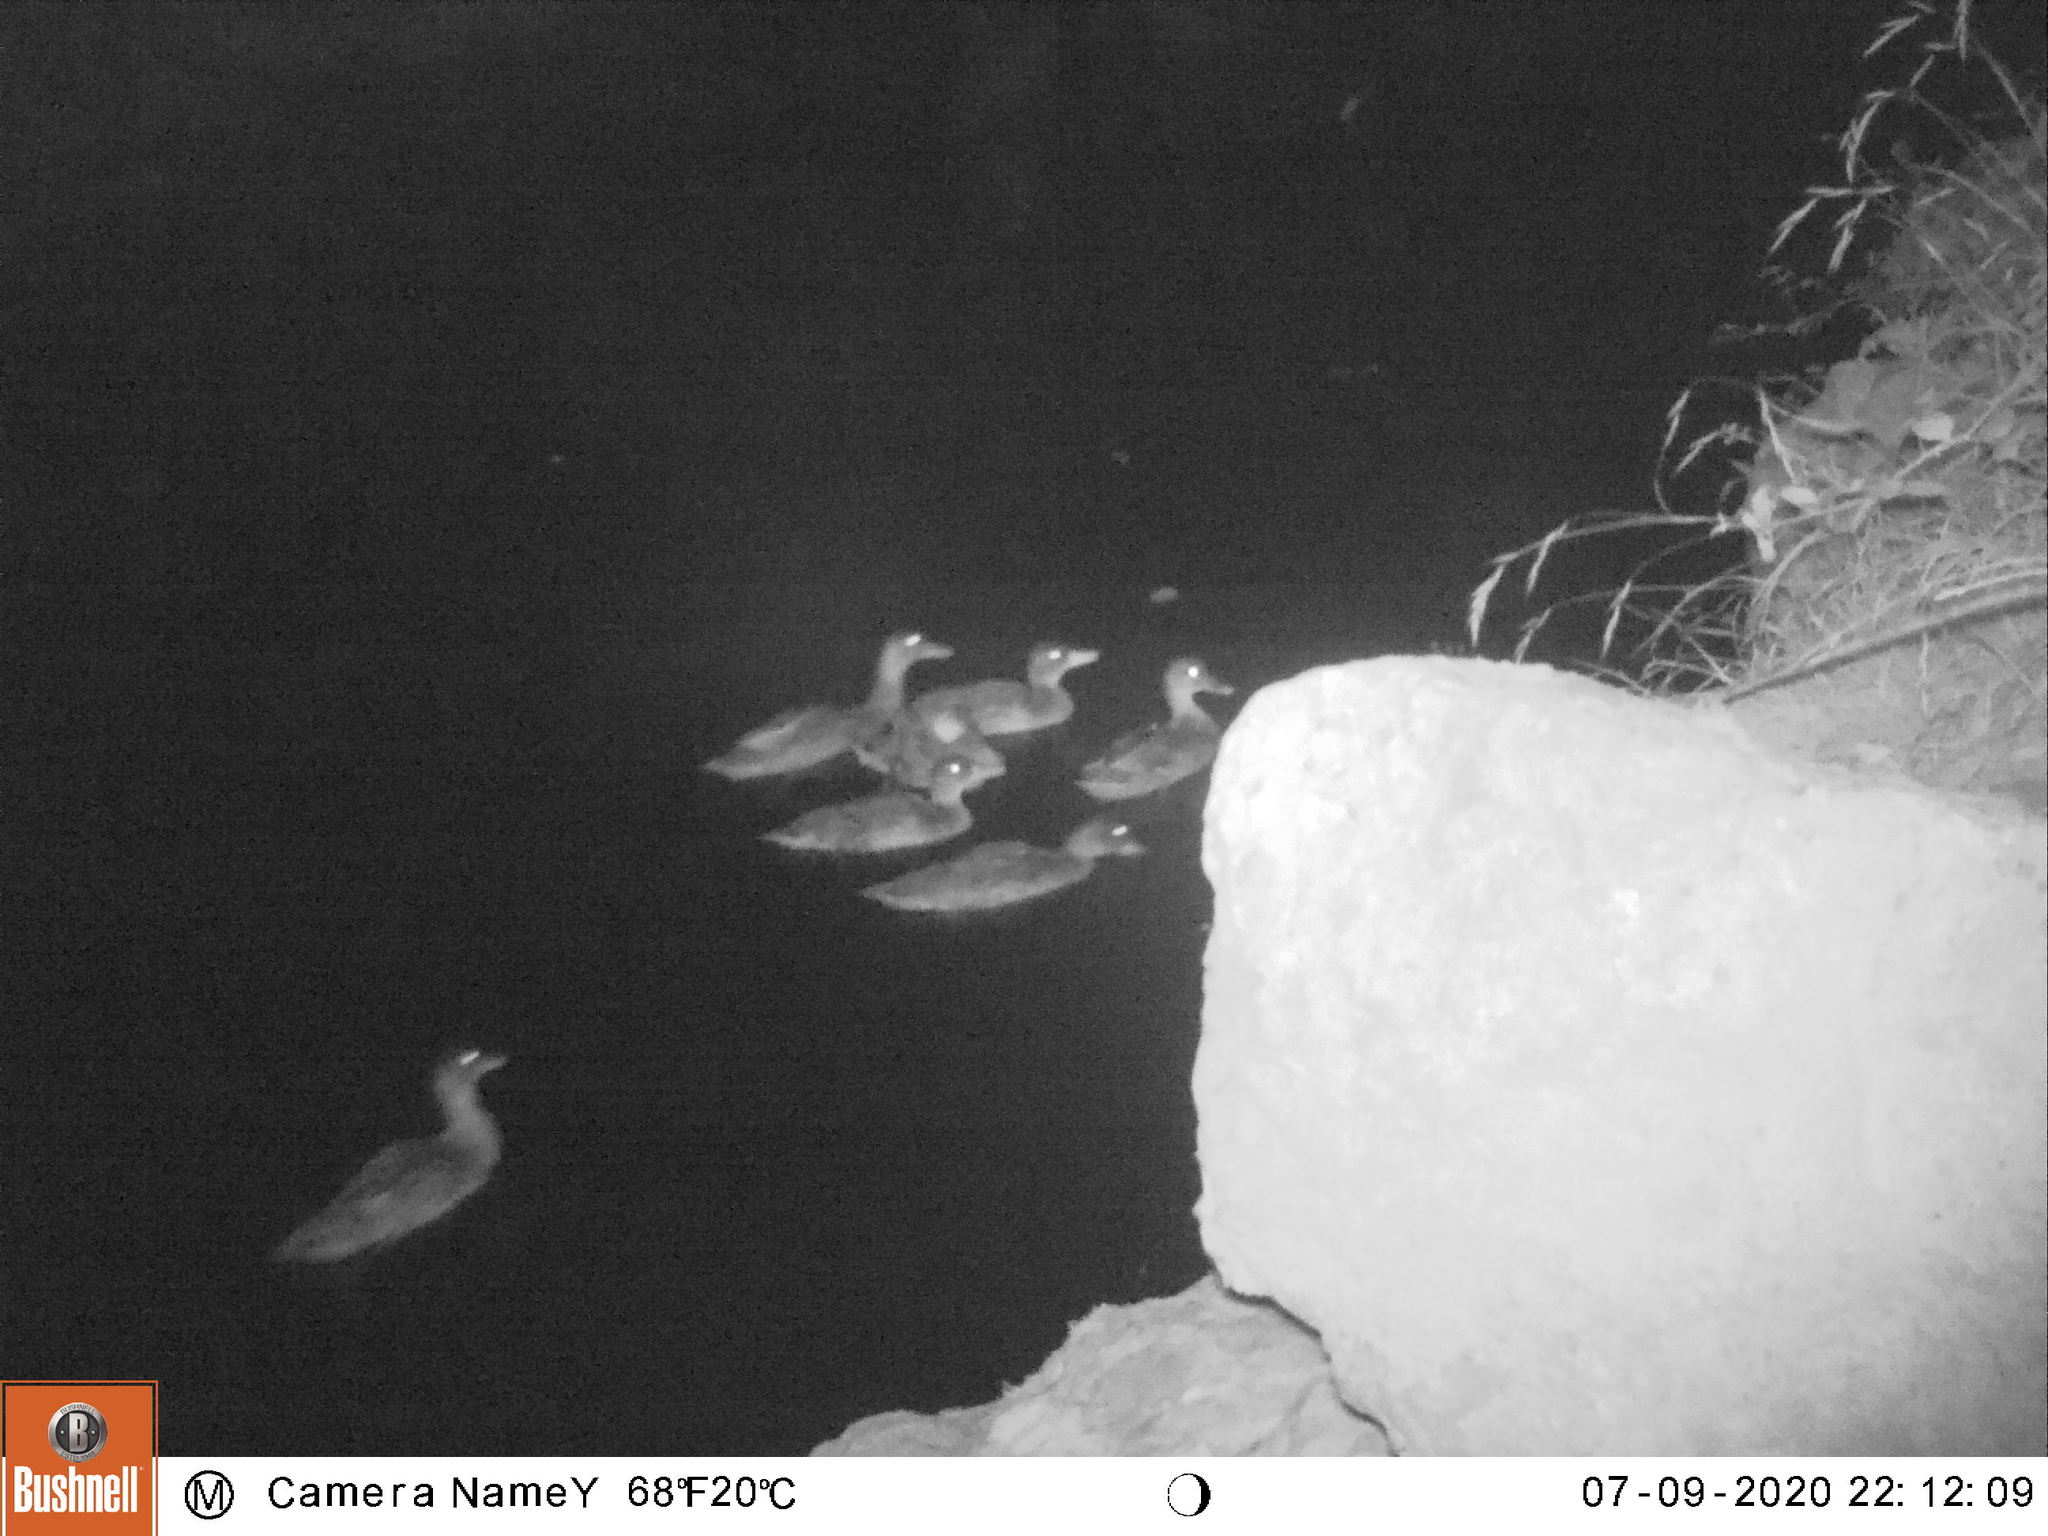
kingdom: Animalia
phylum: Chordata
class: Aves
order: Anseriformes
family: Anatidae
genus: Anas
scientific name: Anas platyrhynchos
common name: Mallard
